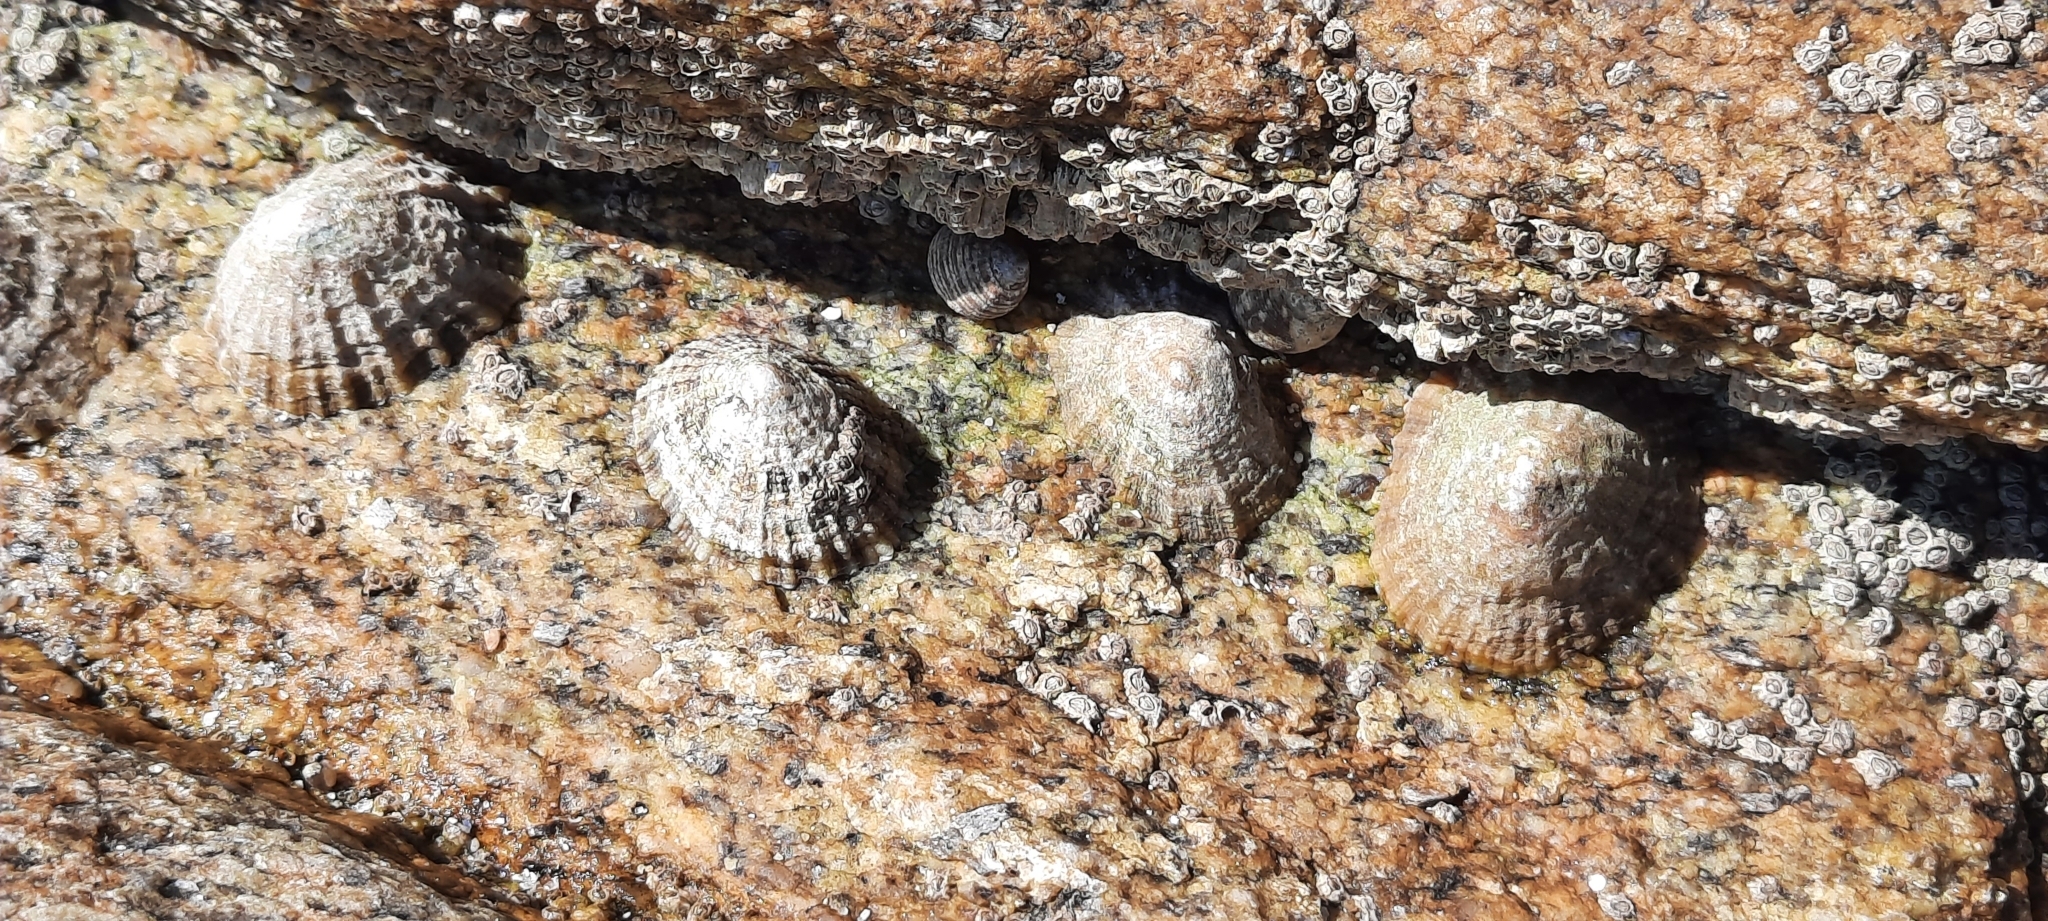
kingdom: Animalia
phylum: Mollusca
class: Gastropoda
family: Patellidae
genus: Patella
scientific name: Patella vulgata
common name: Common limpet
